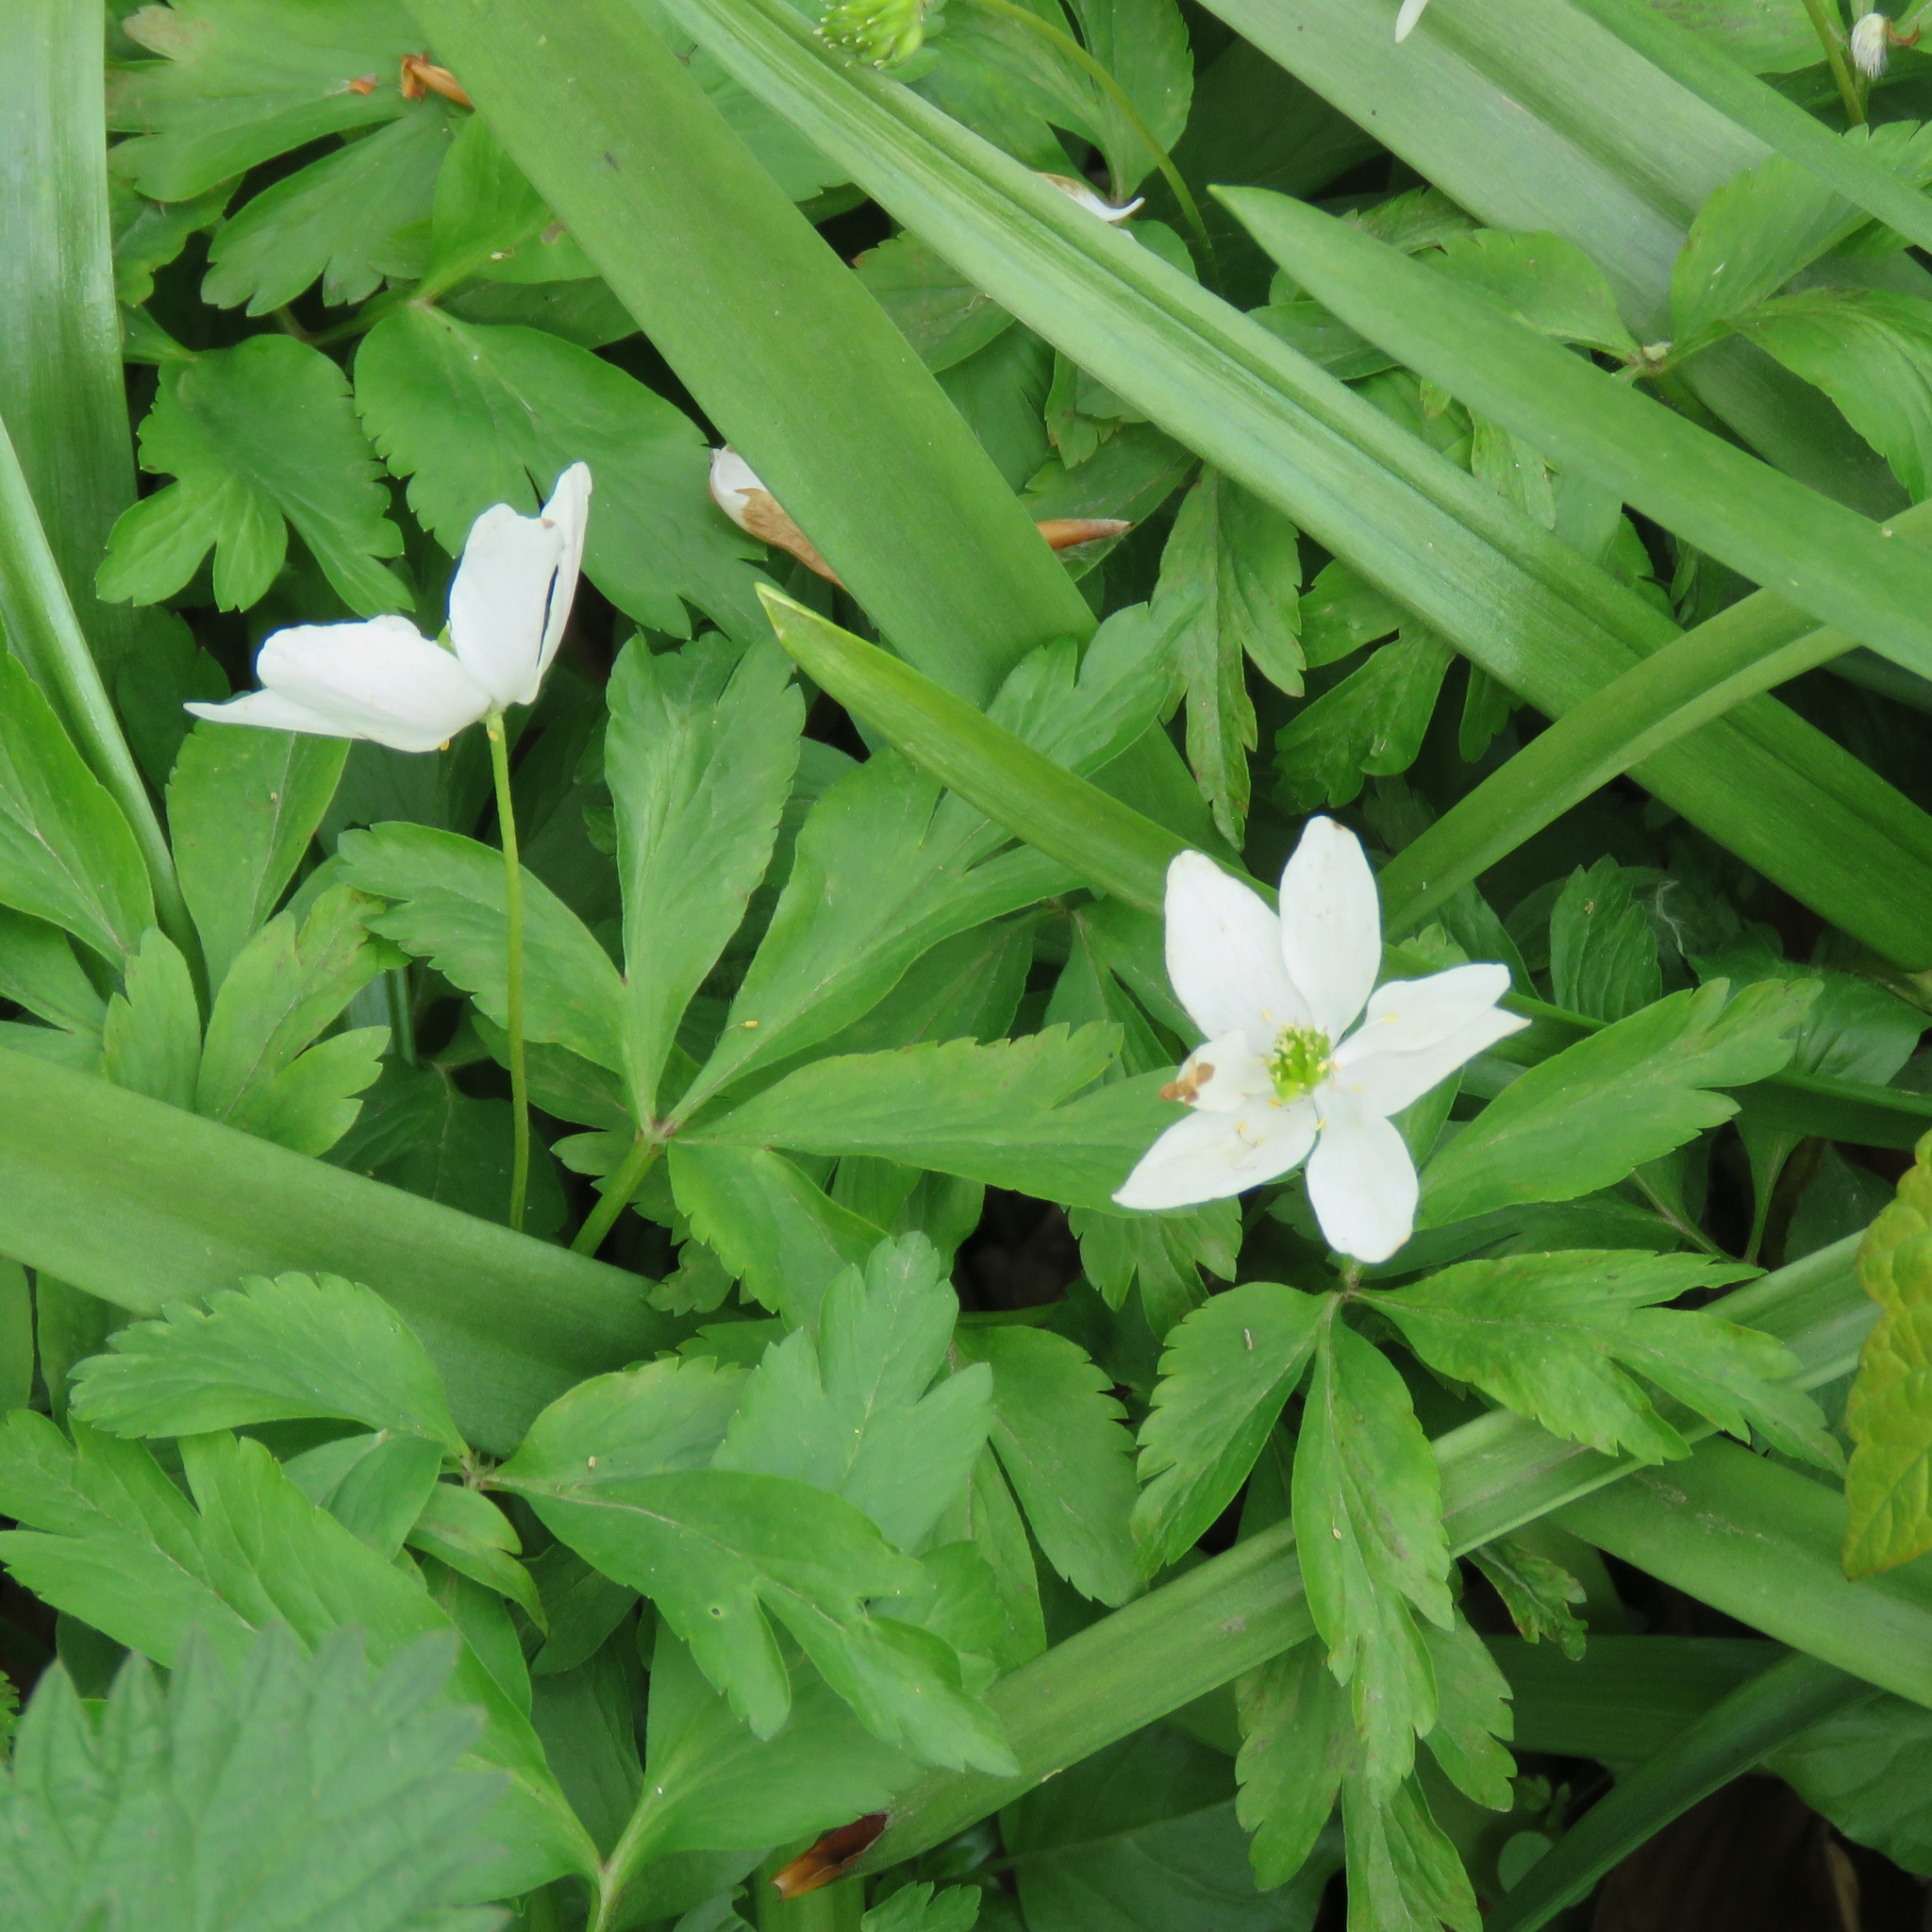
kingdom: Plantae
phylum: Tracheophyta
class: Magnoliopsida
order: Ranunculales
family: Ranunculaceae
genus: Anemone
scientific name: Anemone nemorosa
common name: Wood anemone
